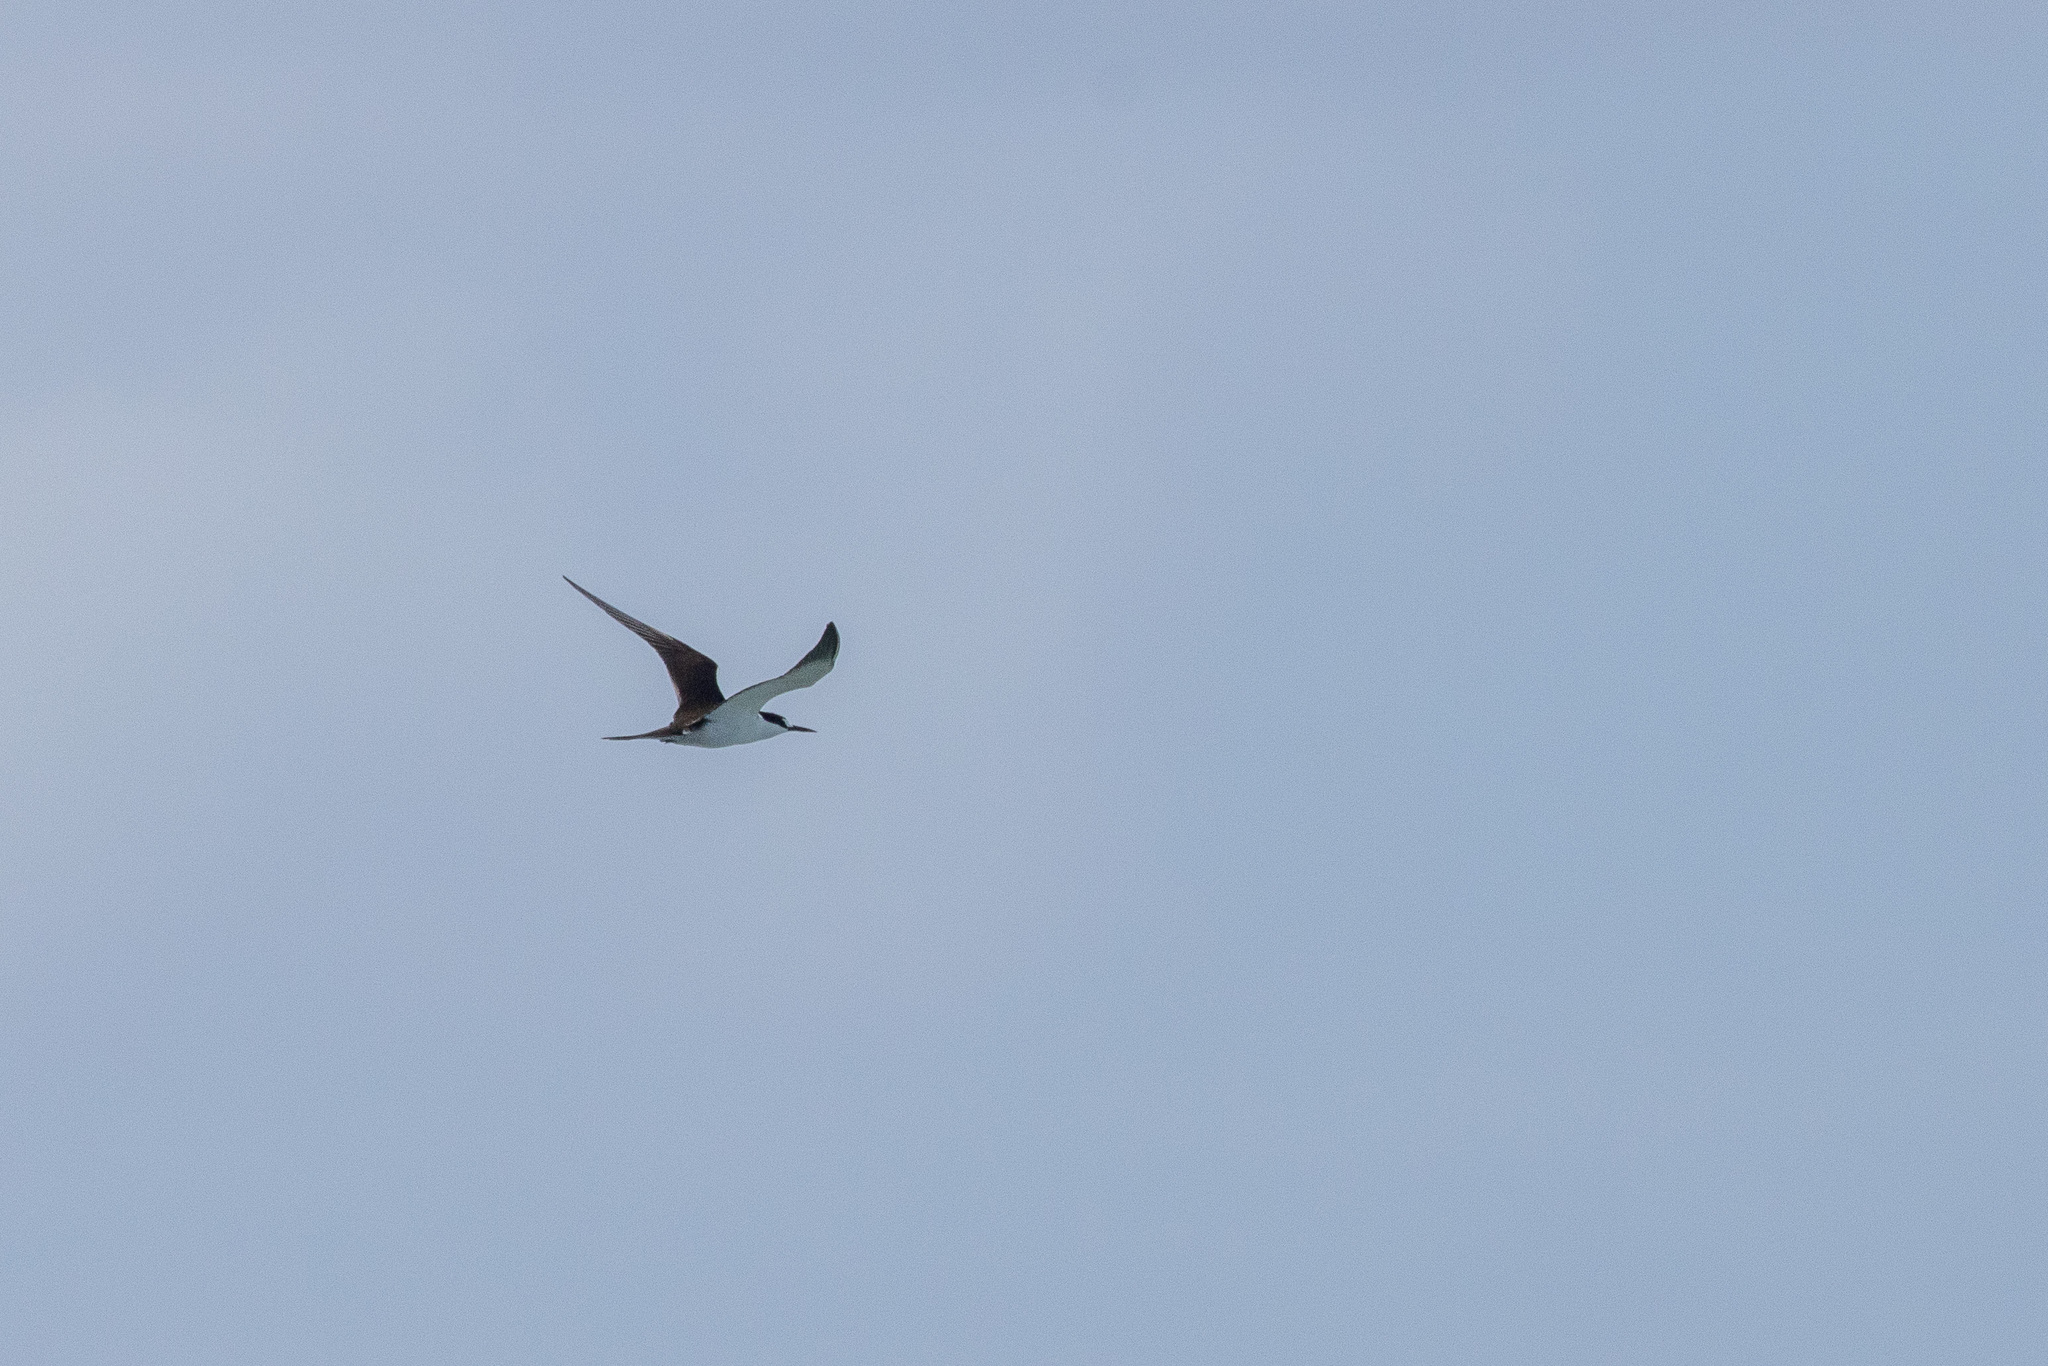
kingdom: Animalia
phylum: Chordata
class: Aves
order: Charadriiformes
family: Laridae
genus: Onychoprion
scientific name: Onychoprion fuscatus
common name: Sooty tern
